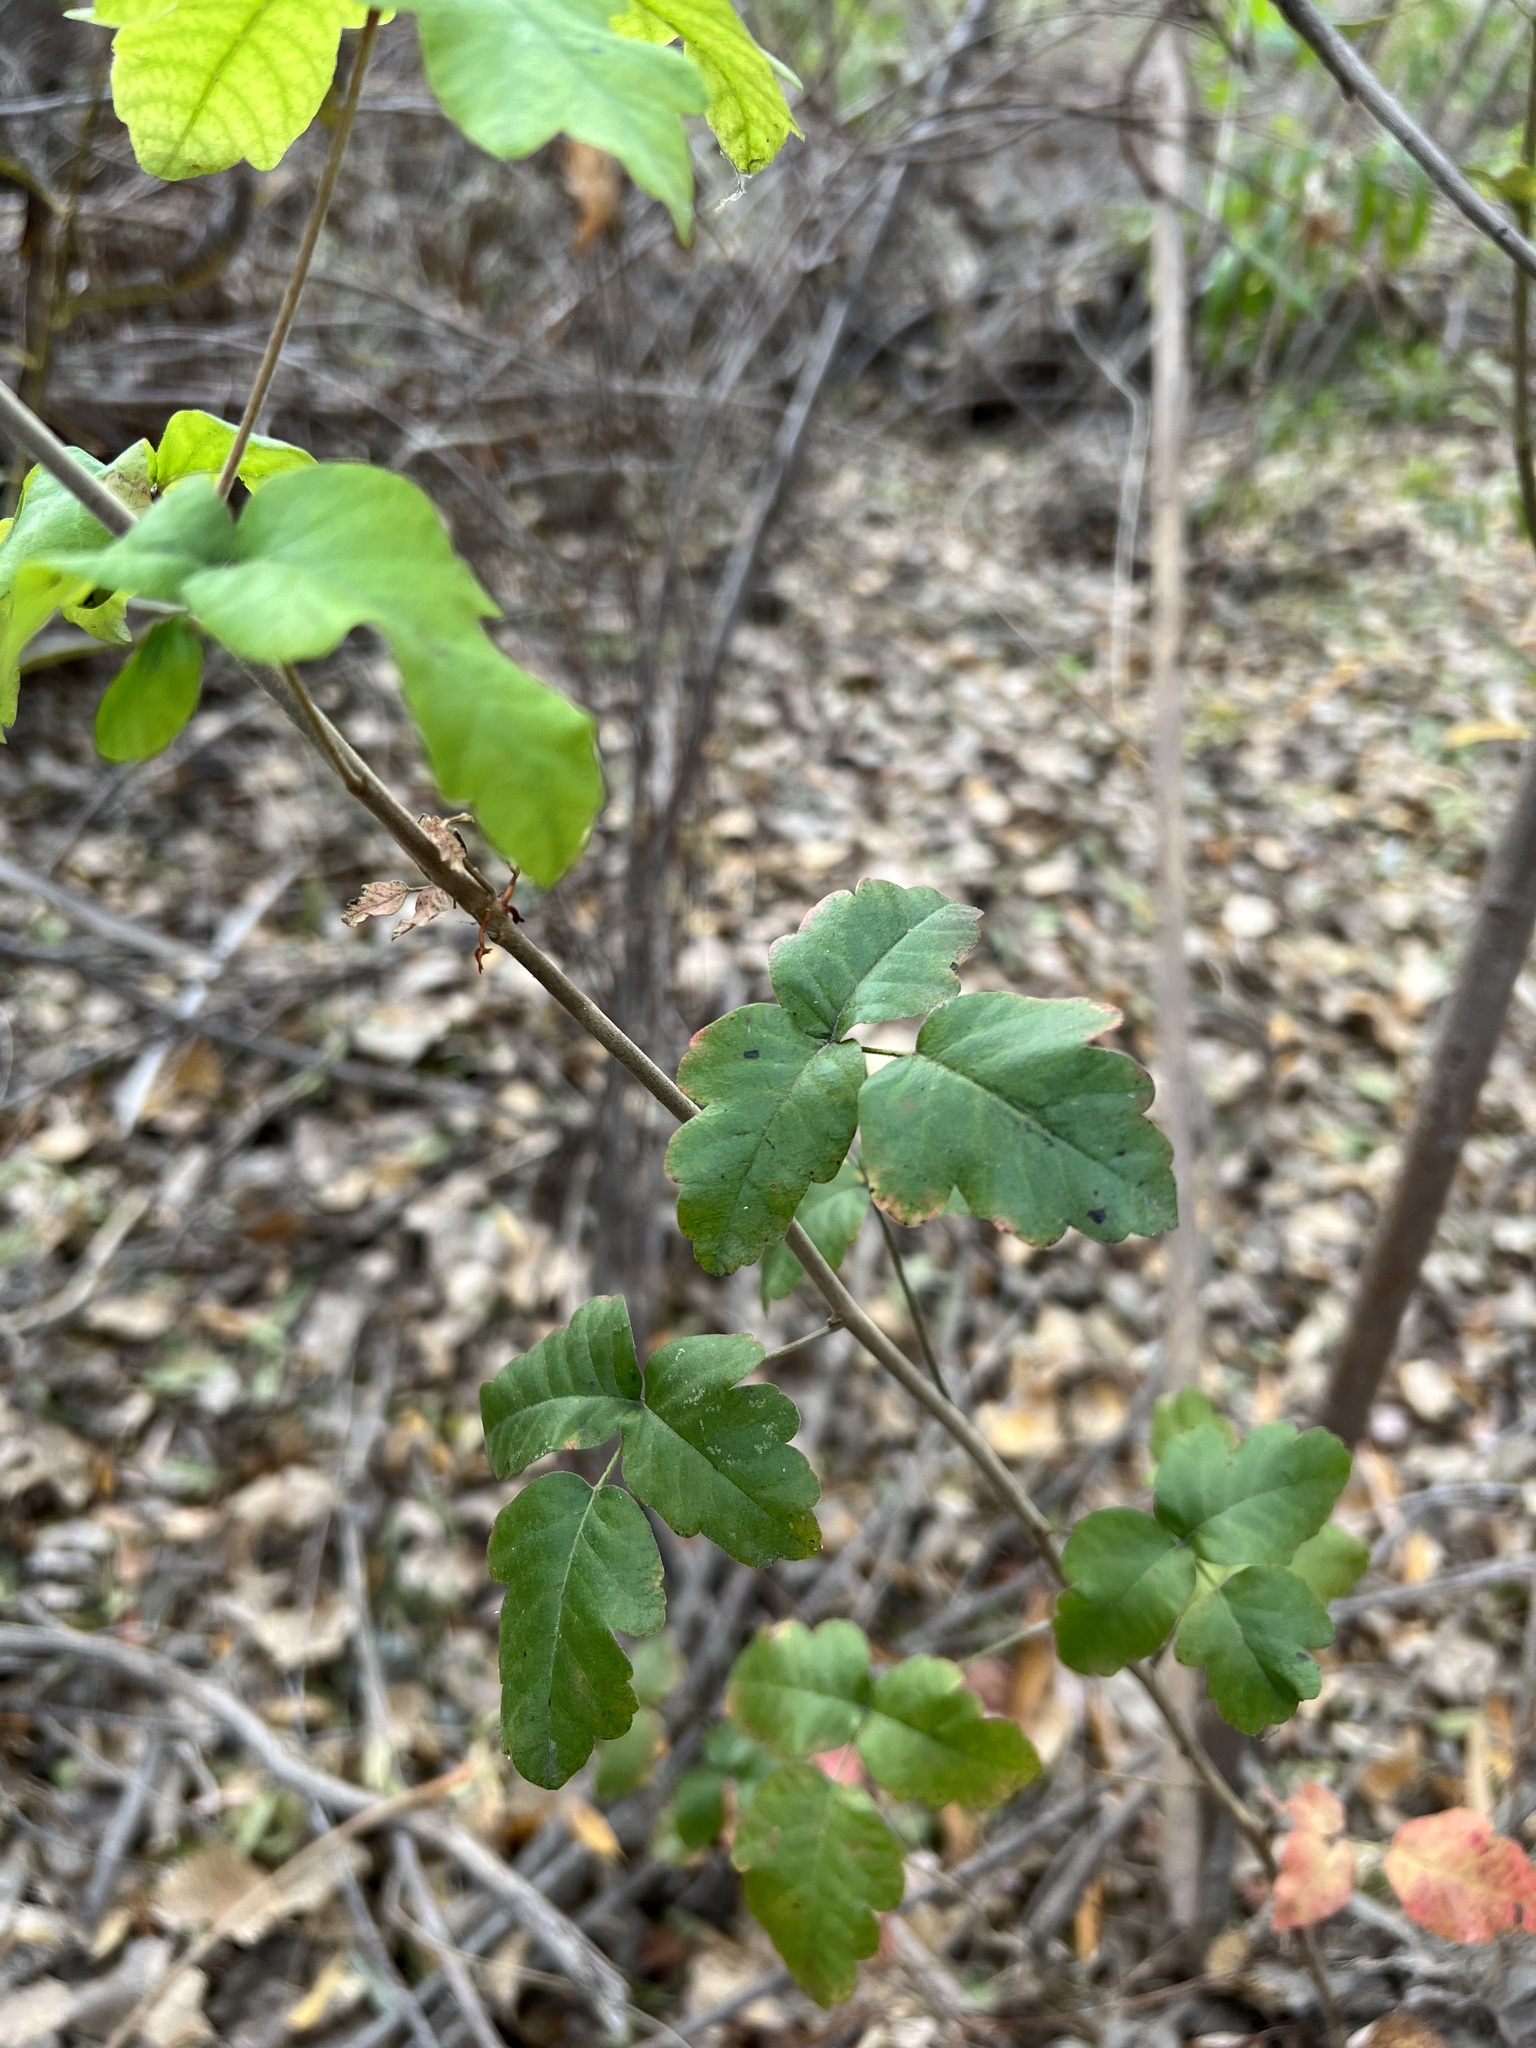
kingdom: Plantae
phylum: Tracheophyta
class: Magnoliopsida
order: Sapindales
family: Anacardiaceae
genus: Toxicodendron
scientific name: Toxicodendron diversilobum
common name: Pacific poison-oak
